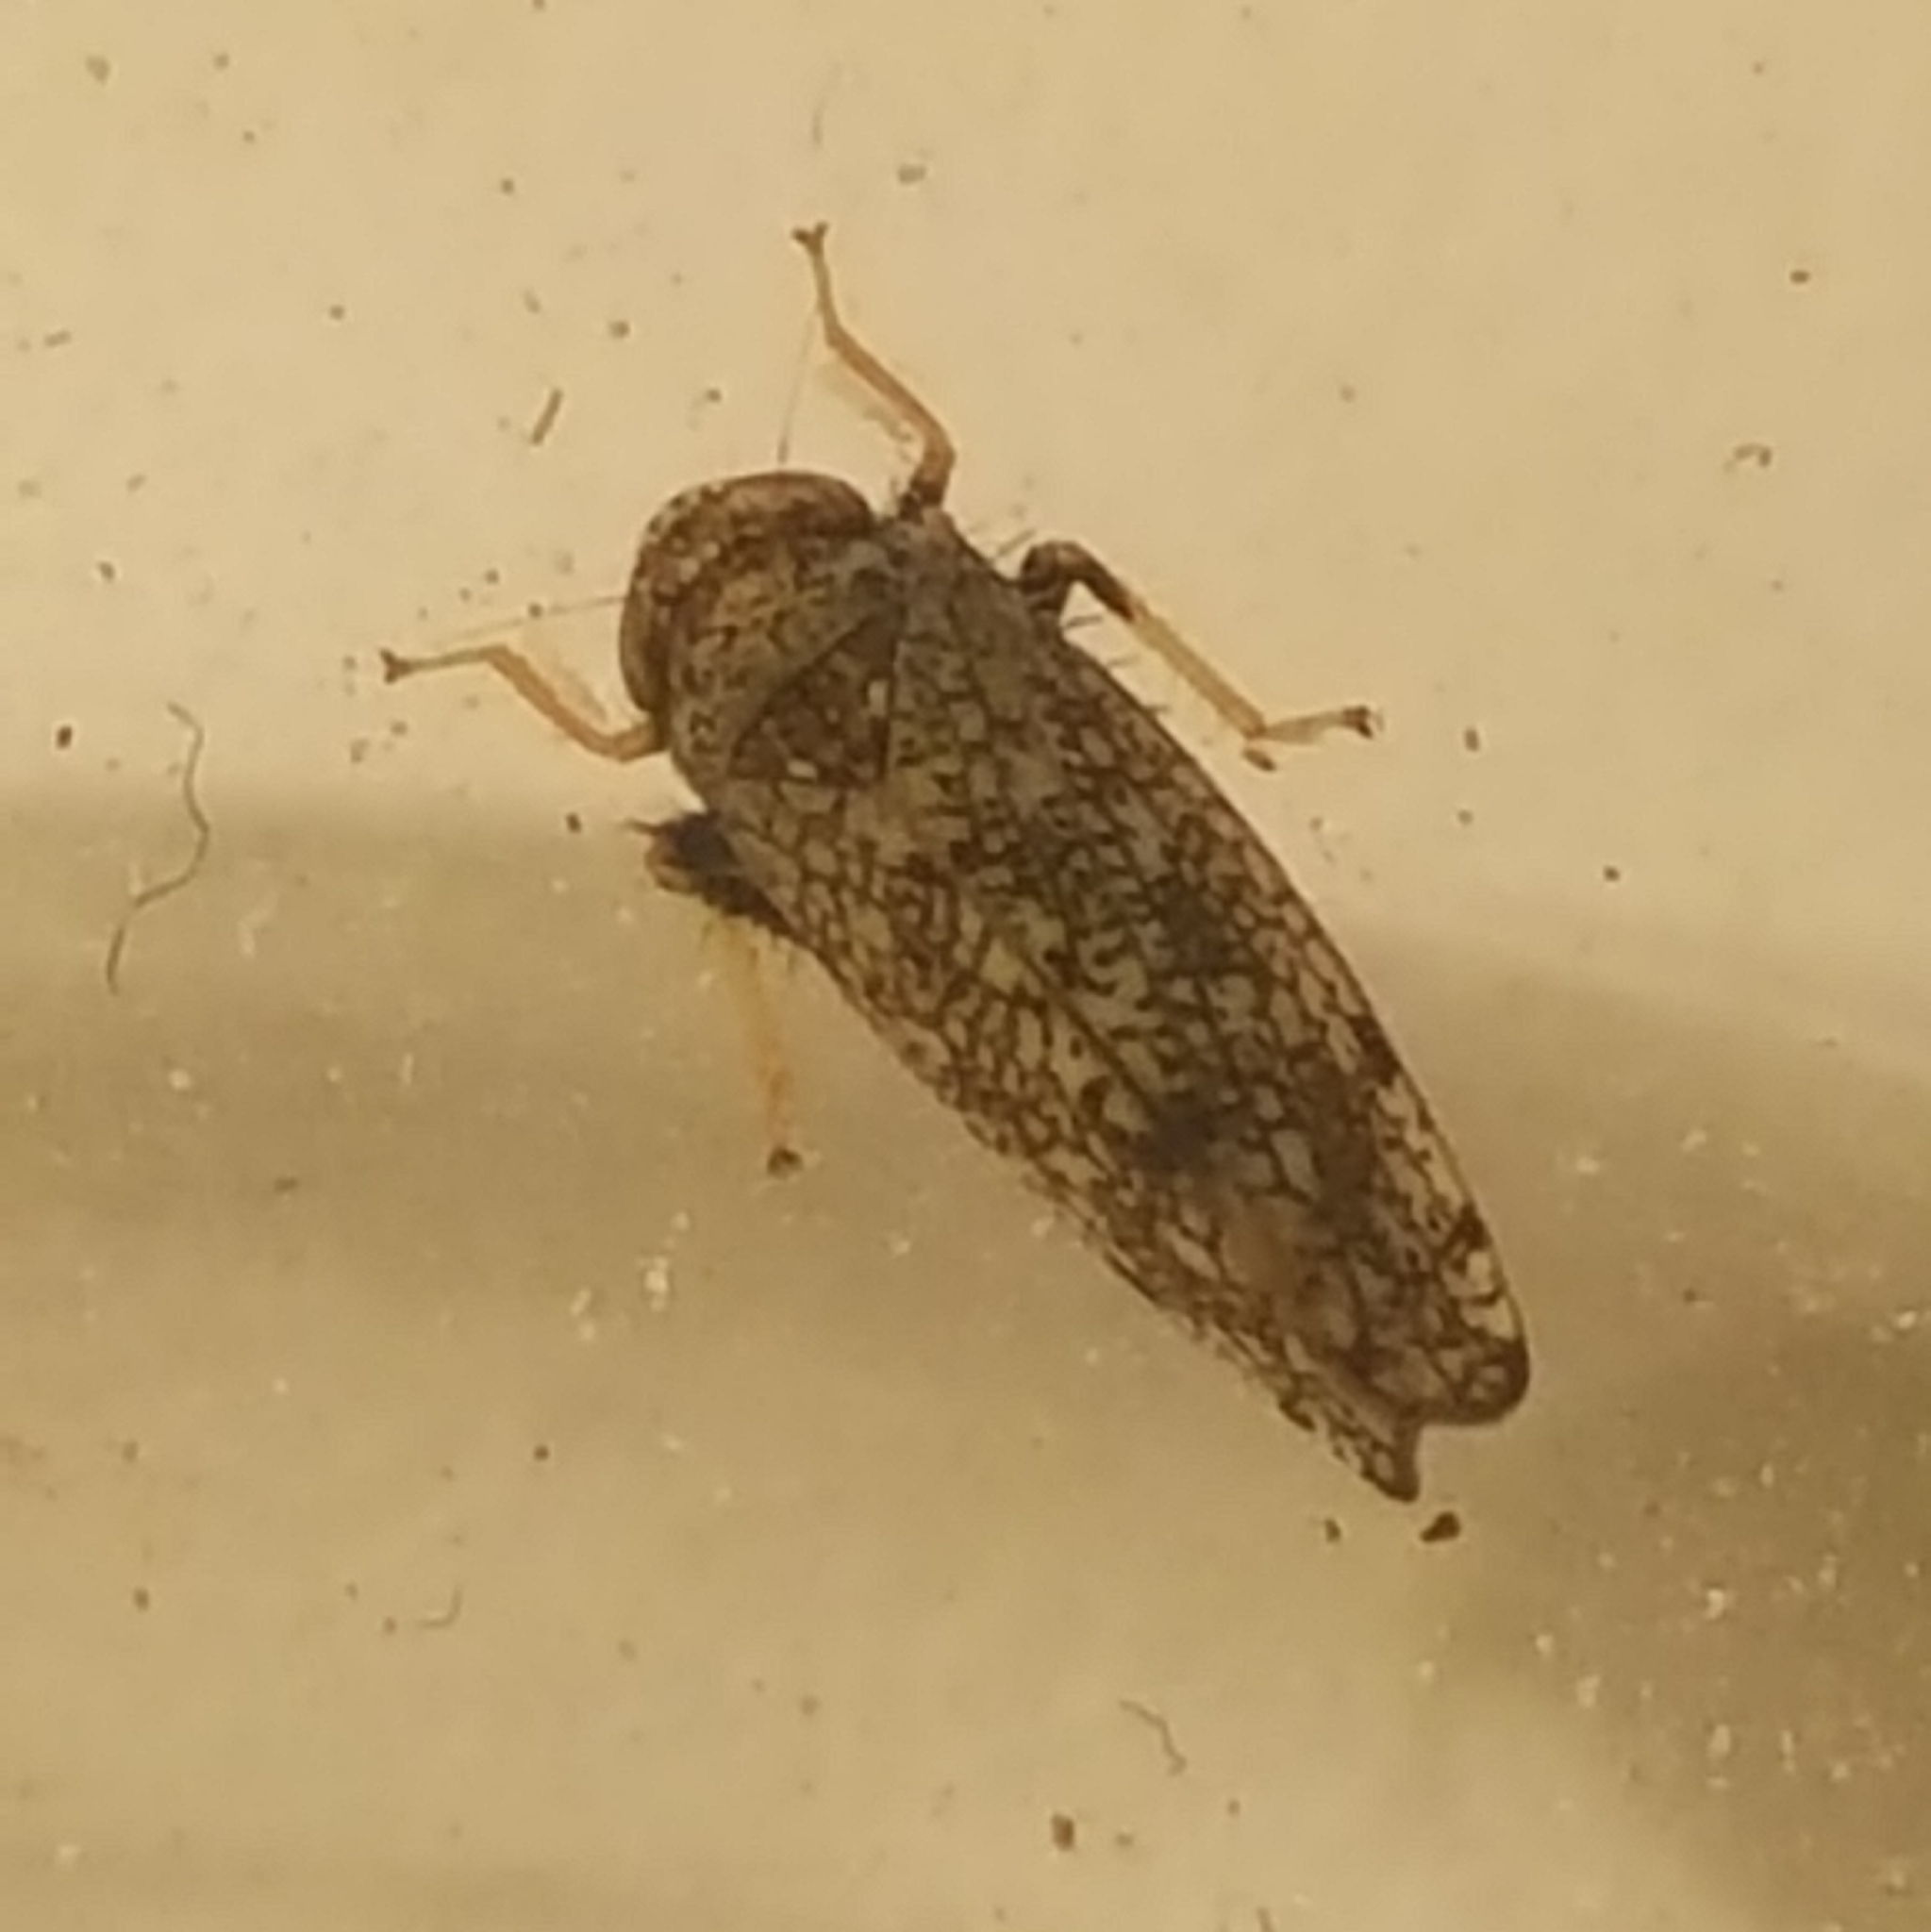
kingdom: Animalia
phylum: Arthropoda
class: Insecta
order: Hemiptera
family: Cicadellidae
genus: Orientus
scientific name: Orientus ishidae
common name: Japanese leafhopper
